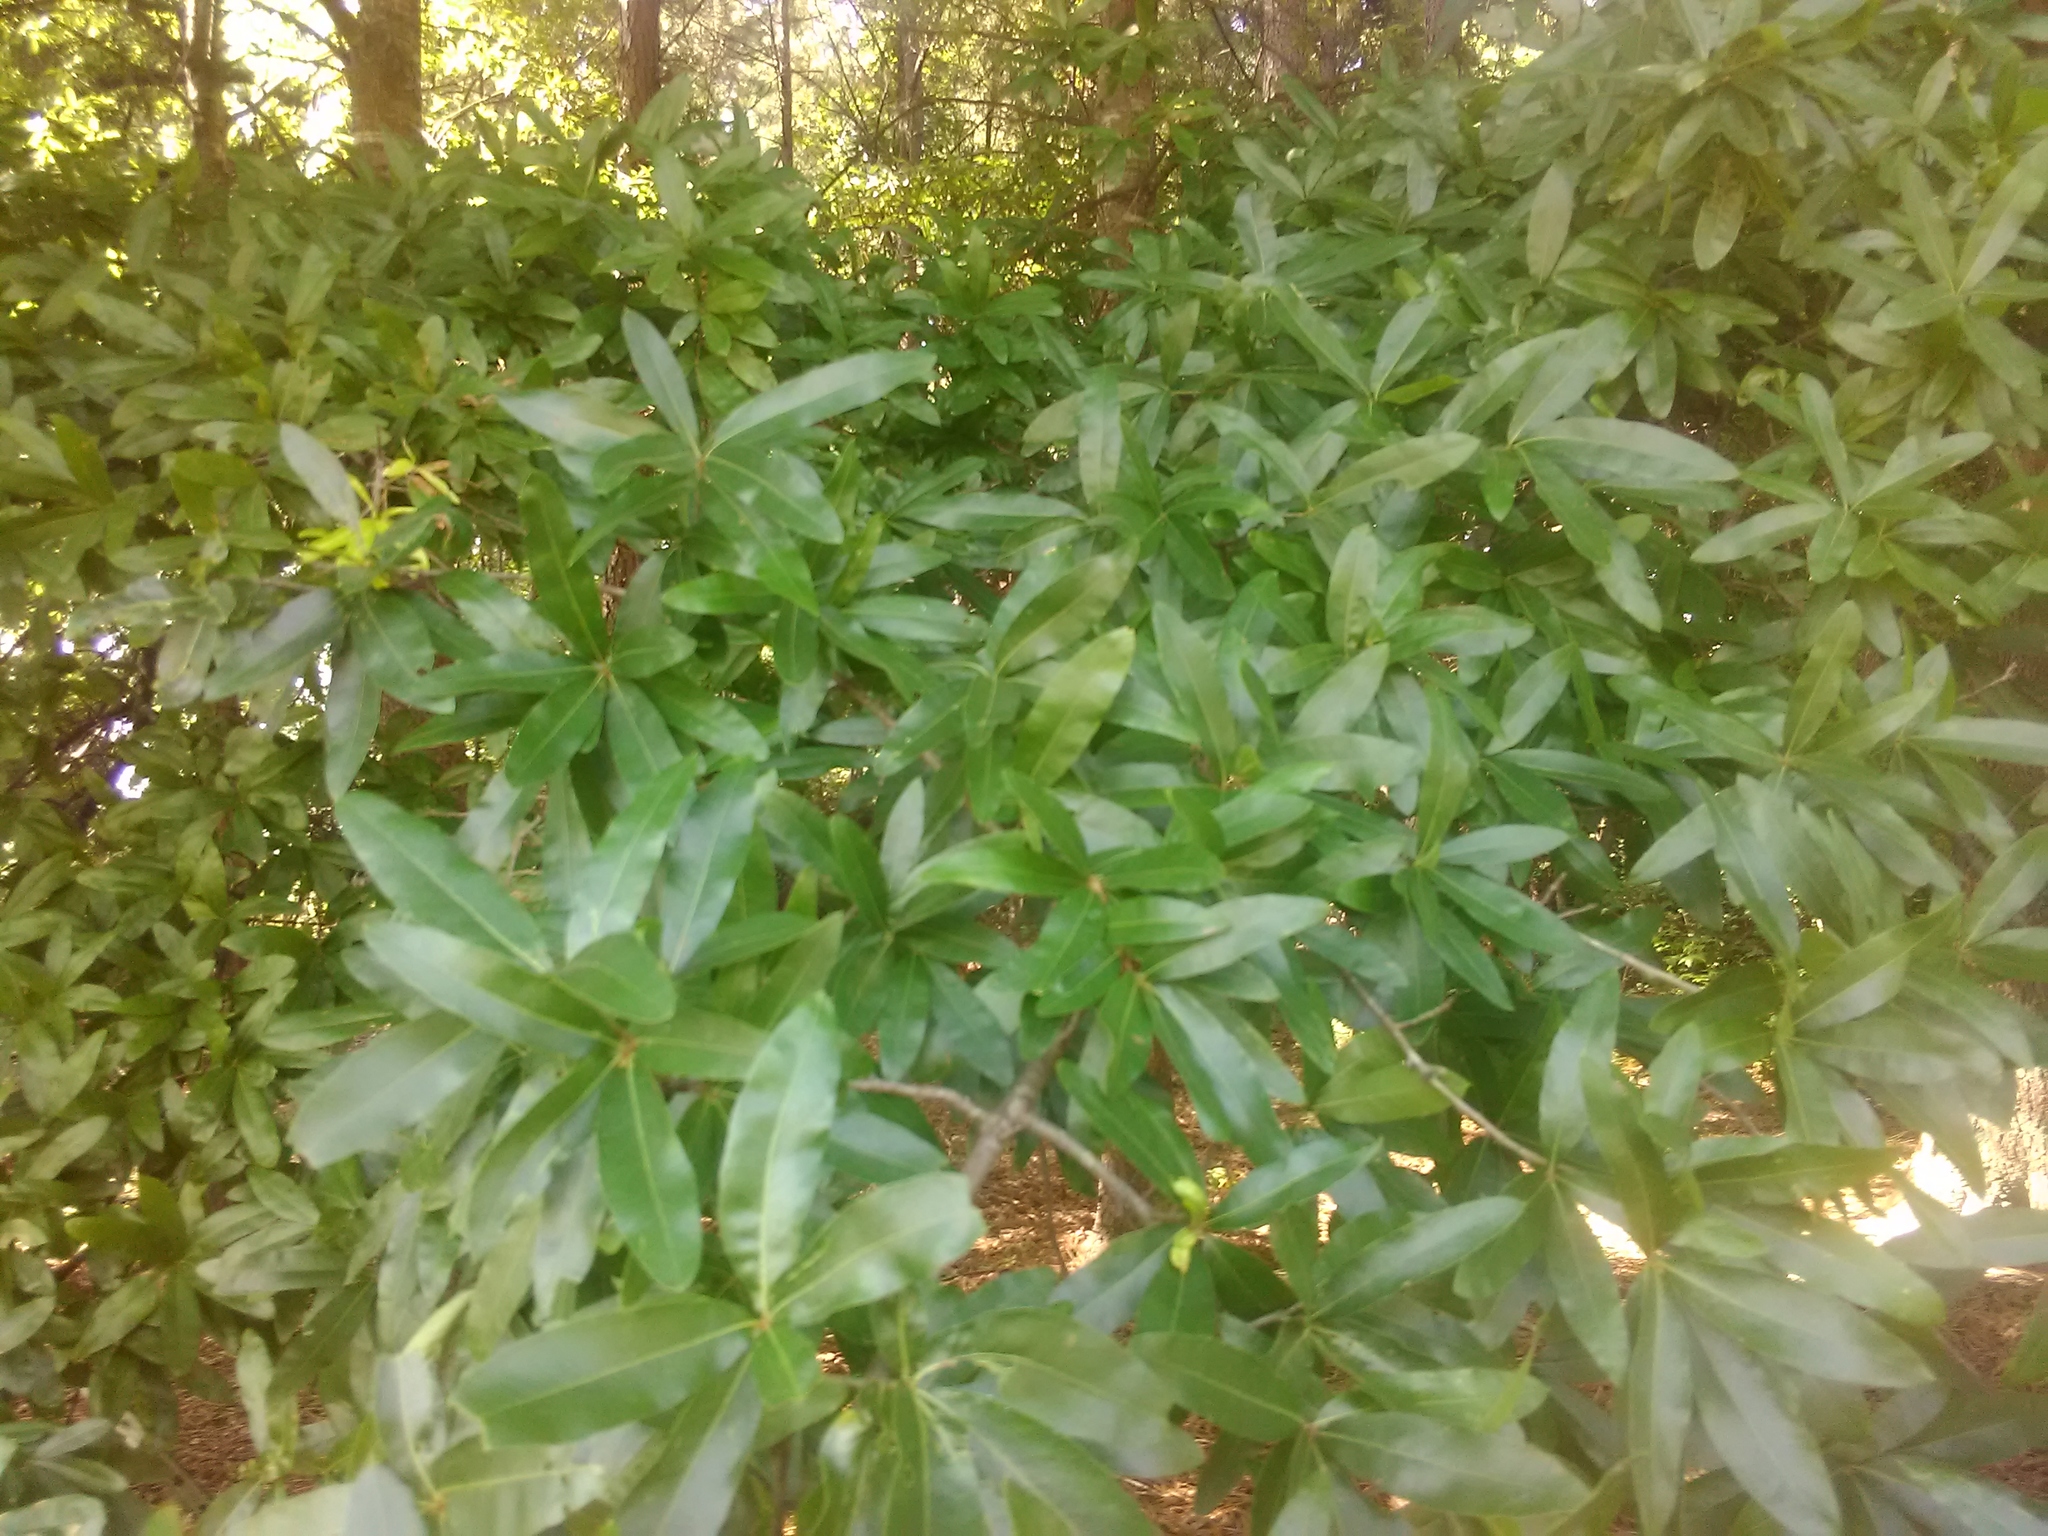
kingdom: Plantae
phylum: Tracheophyta
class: Magnoliopsida
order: Fagales
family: Fagaceae
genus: Quercus
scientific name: Quercus phellos
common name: Willow oak
